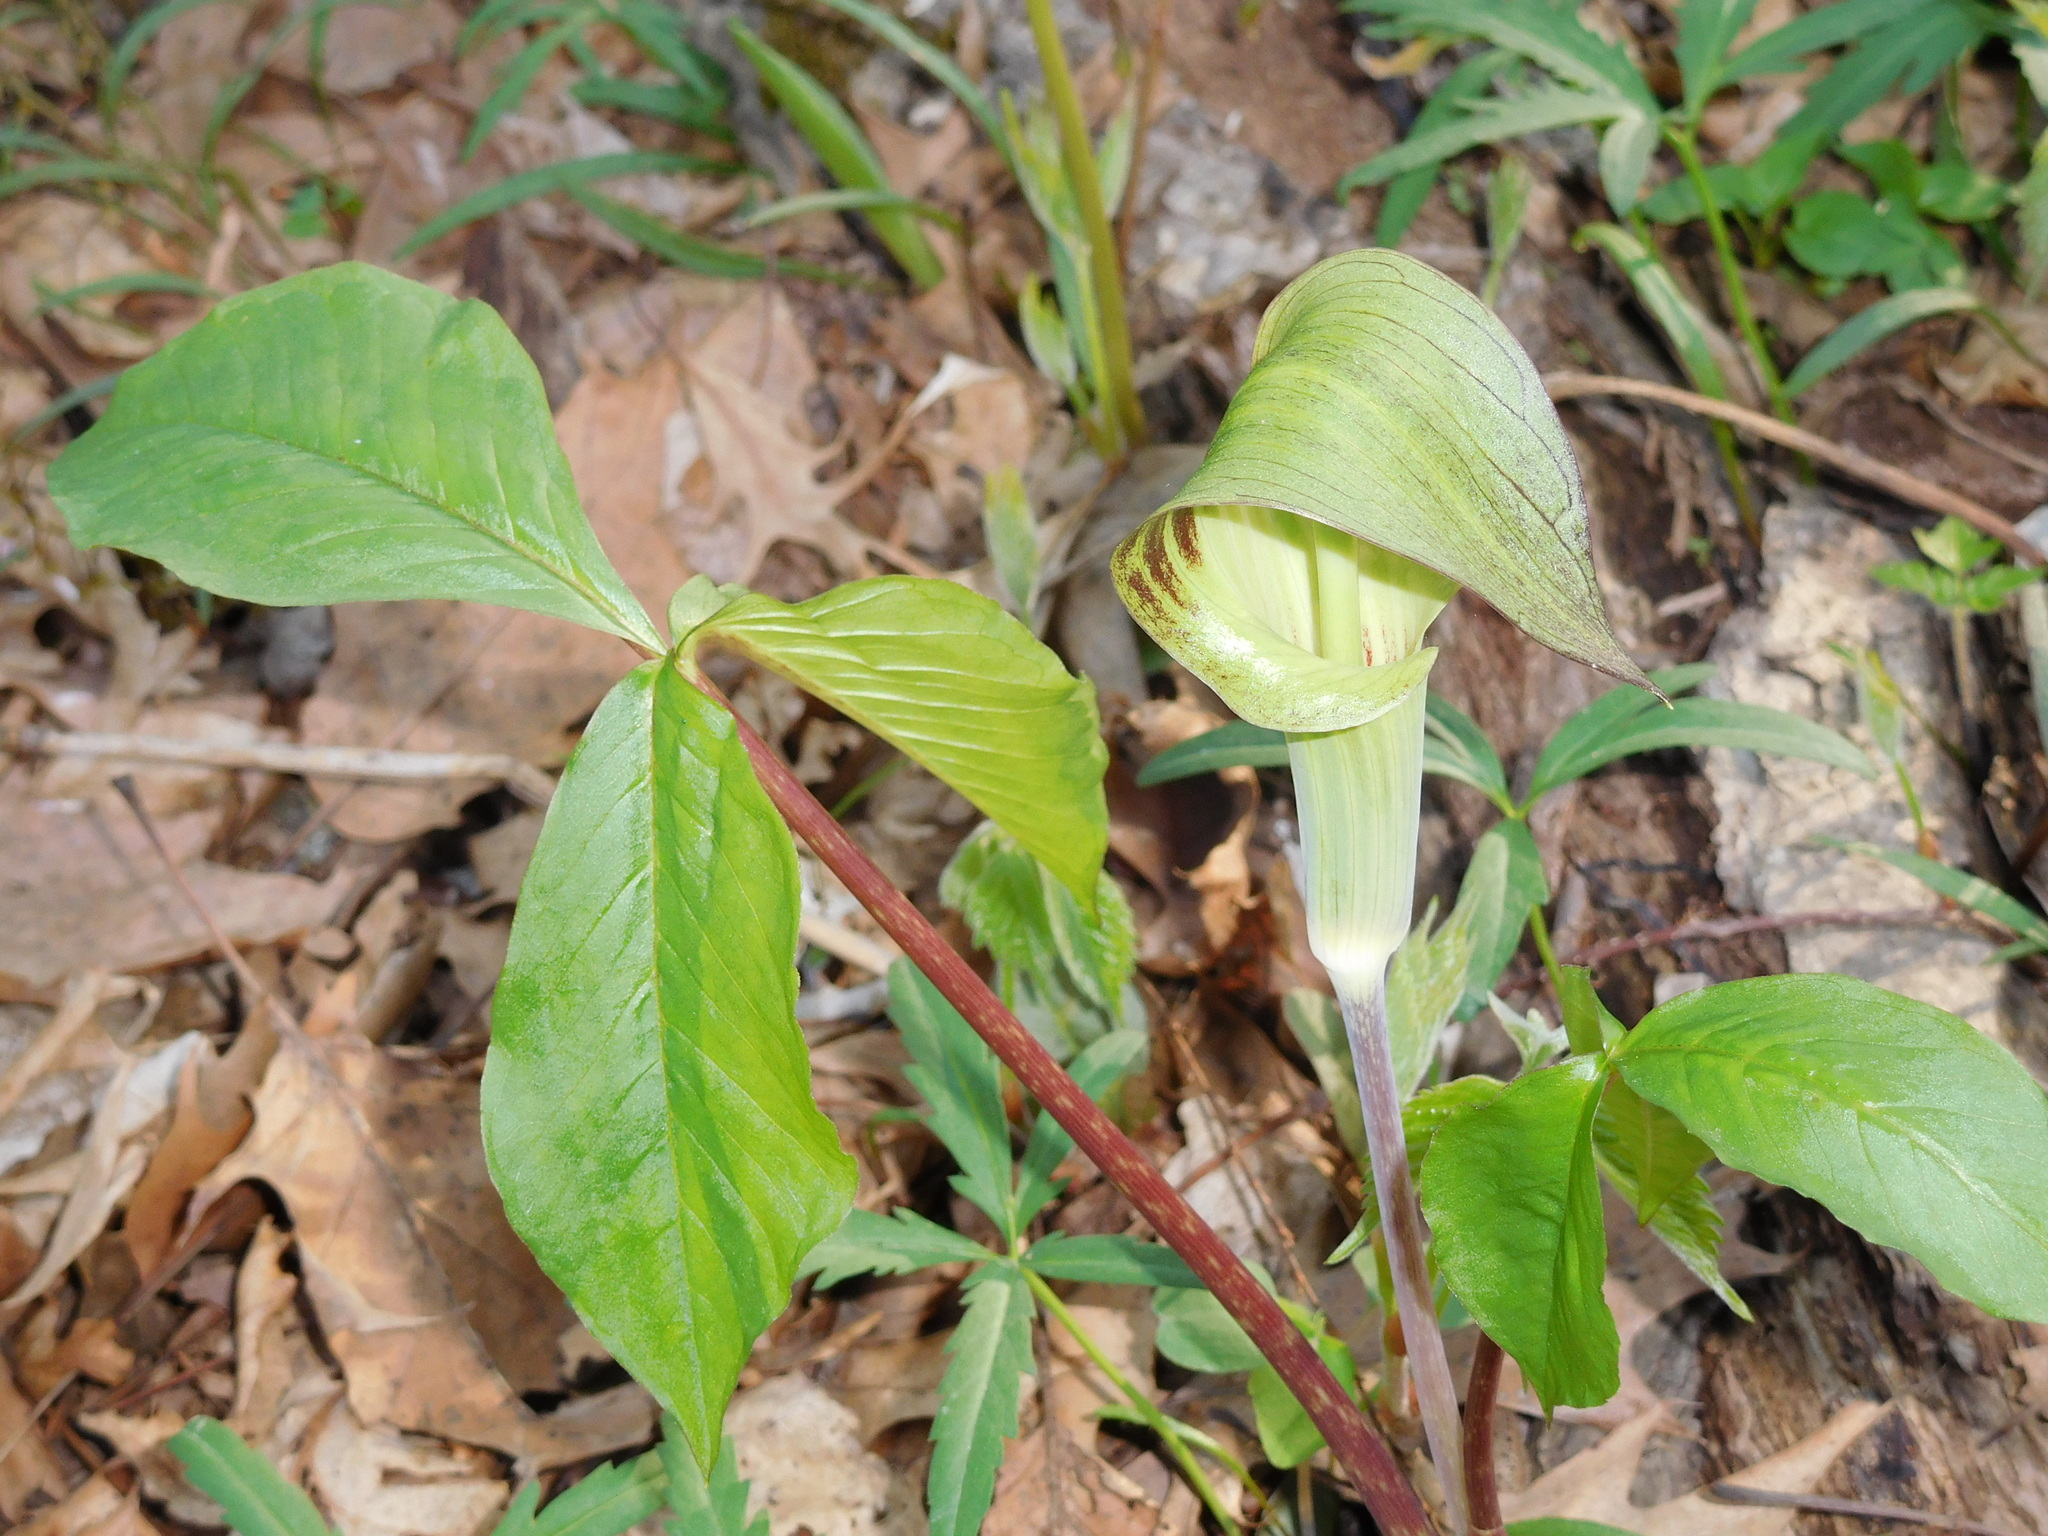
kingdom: Plantae
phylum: Tracheophyta
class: Liliopsida
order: Alismatales
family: Araceae
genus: Arisaema
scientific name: Arisaema triphyllum
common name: Jack-in-the-pulpit
